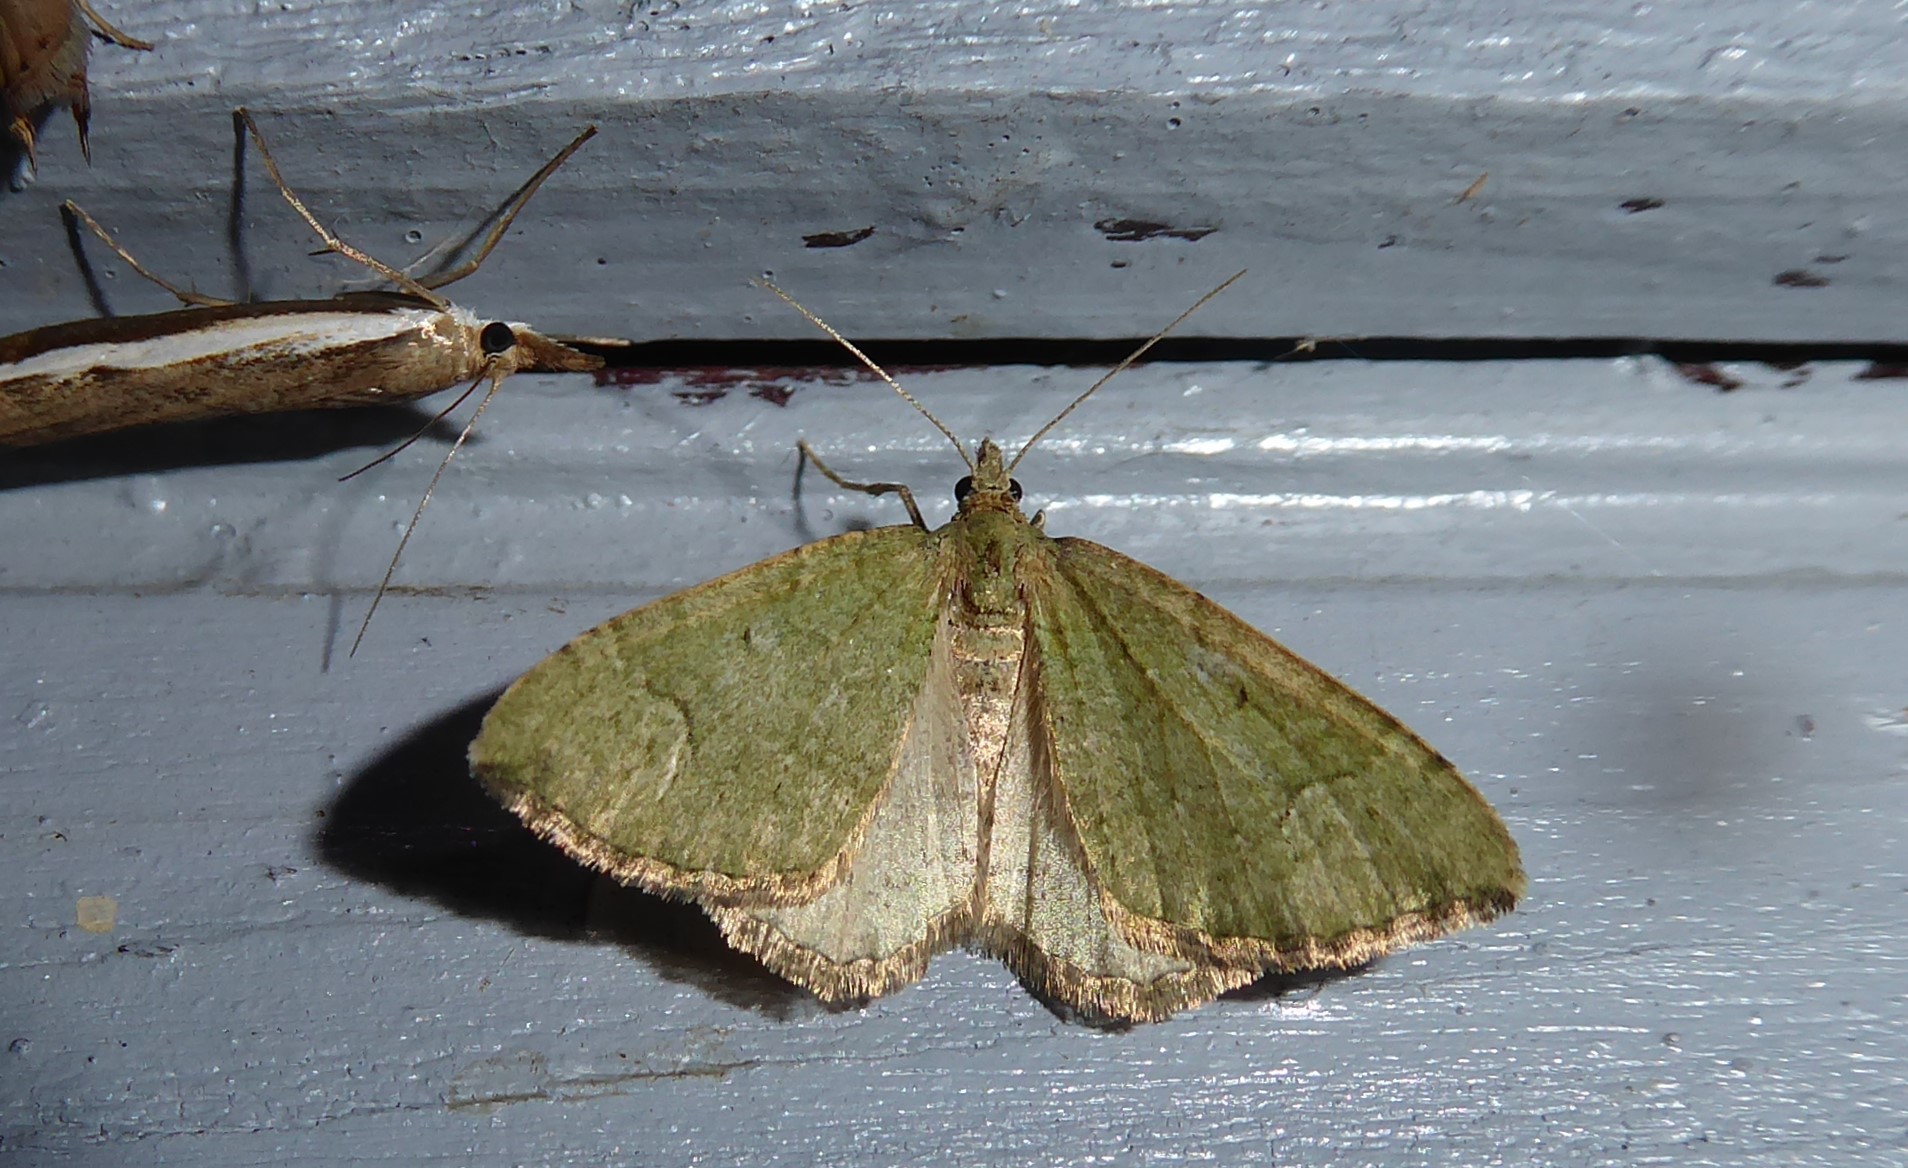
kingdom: Animalia
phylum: Arthropoda
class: Insecta
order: Lepidoptera
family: Geometridae
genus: Epyaxa
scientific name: Epyaxa rosearia
